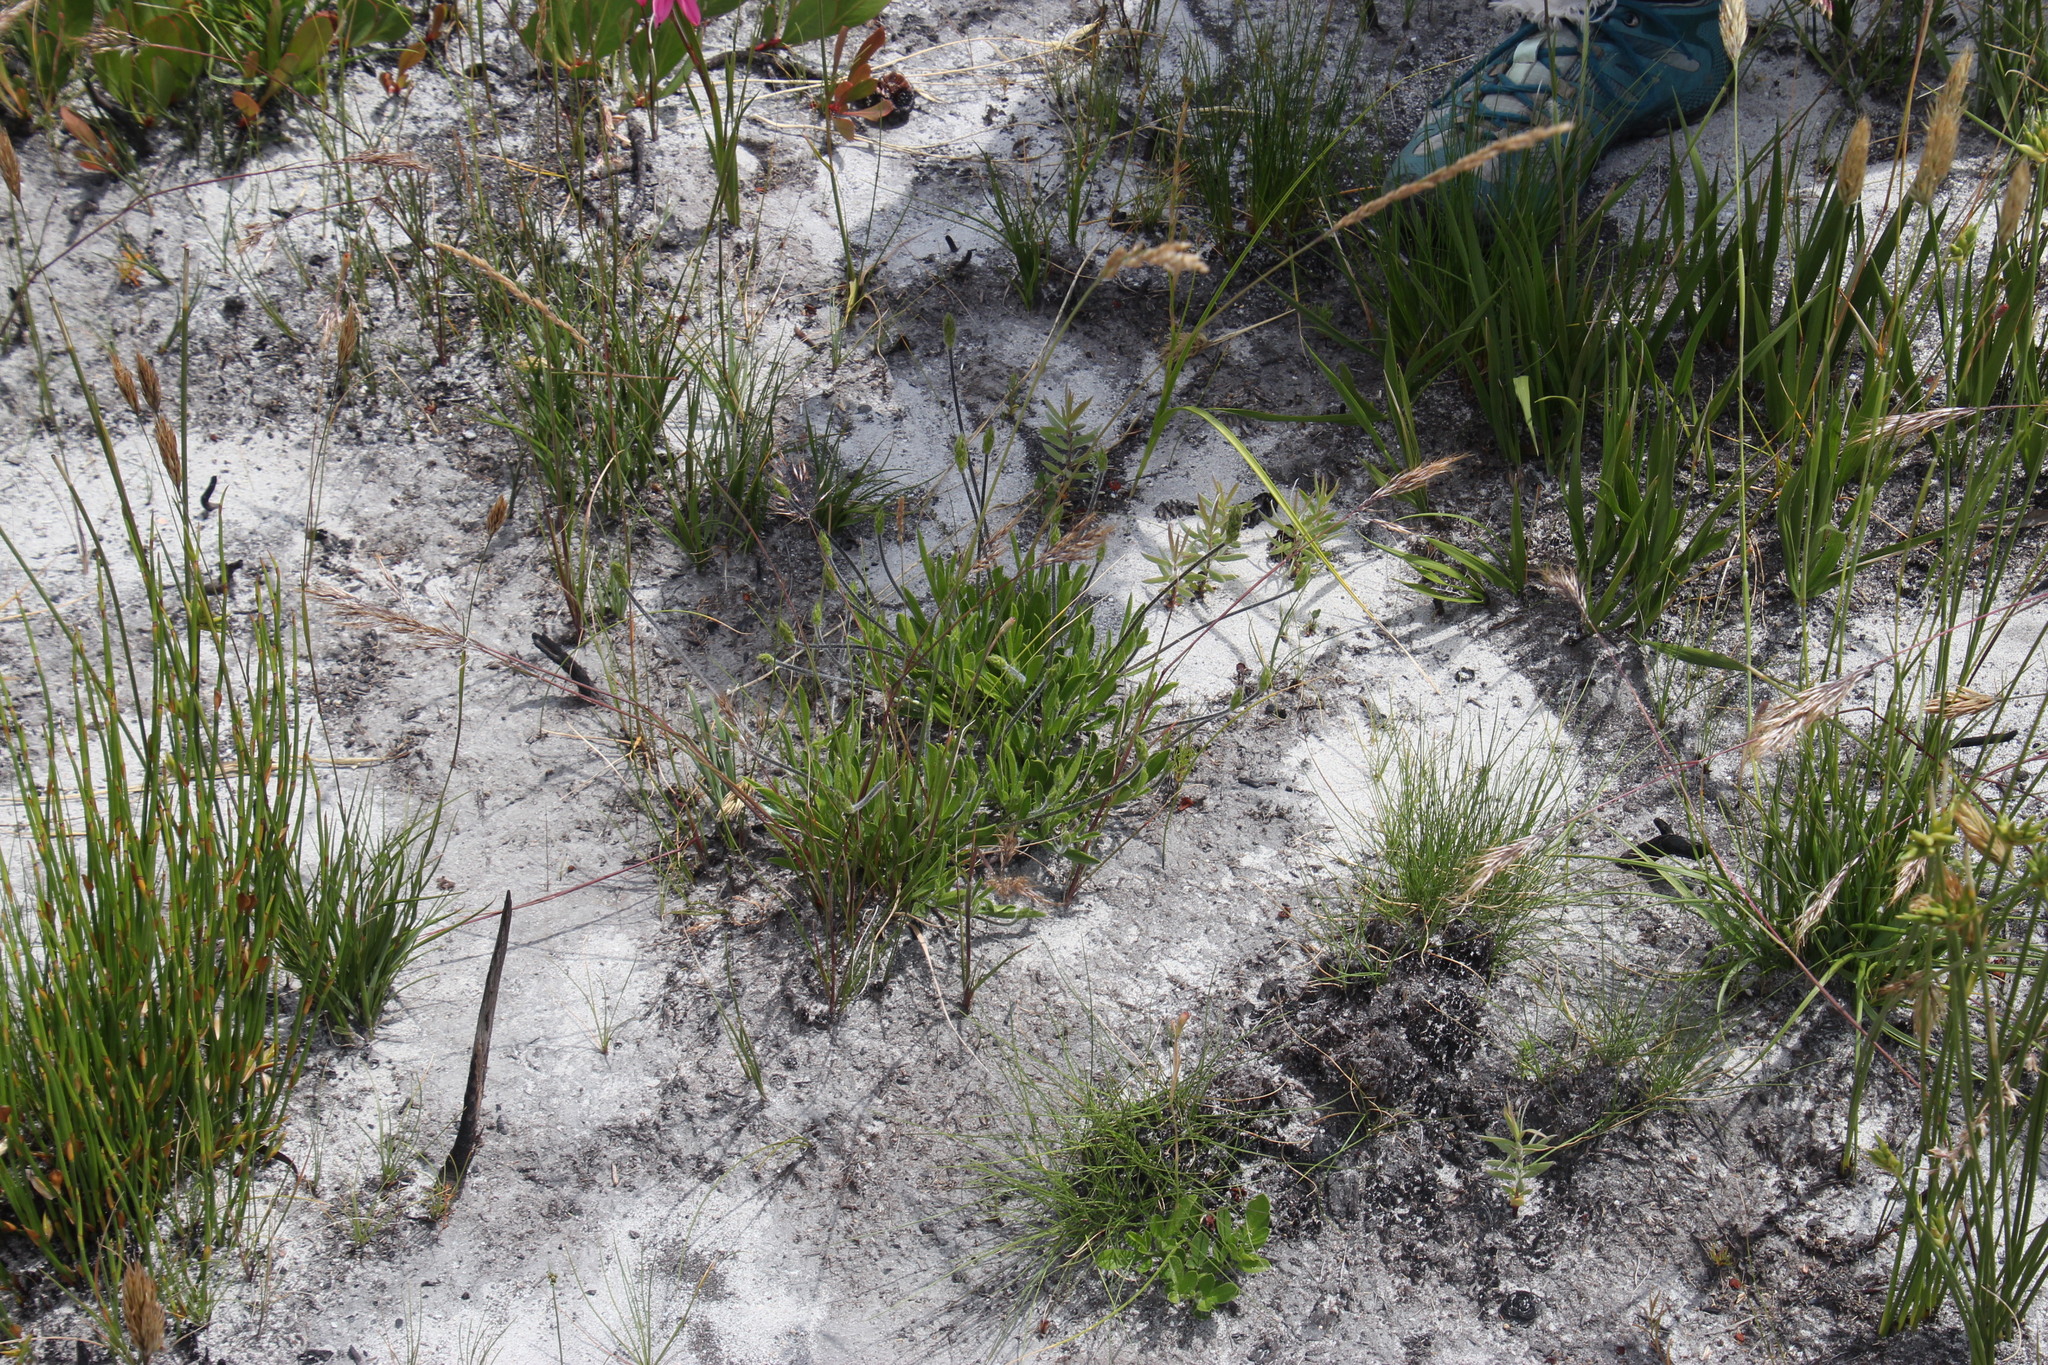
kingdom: Plantae
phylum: Tracheophyta
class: Magnoliopsida
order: Fabales
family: Fabaceae
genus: Psoralea
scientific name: Psoralea zeyheri
